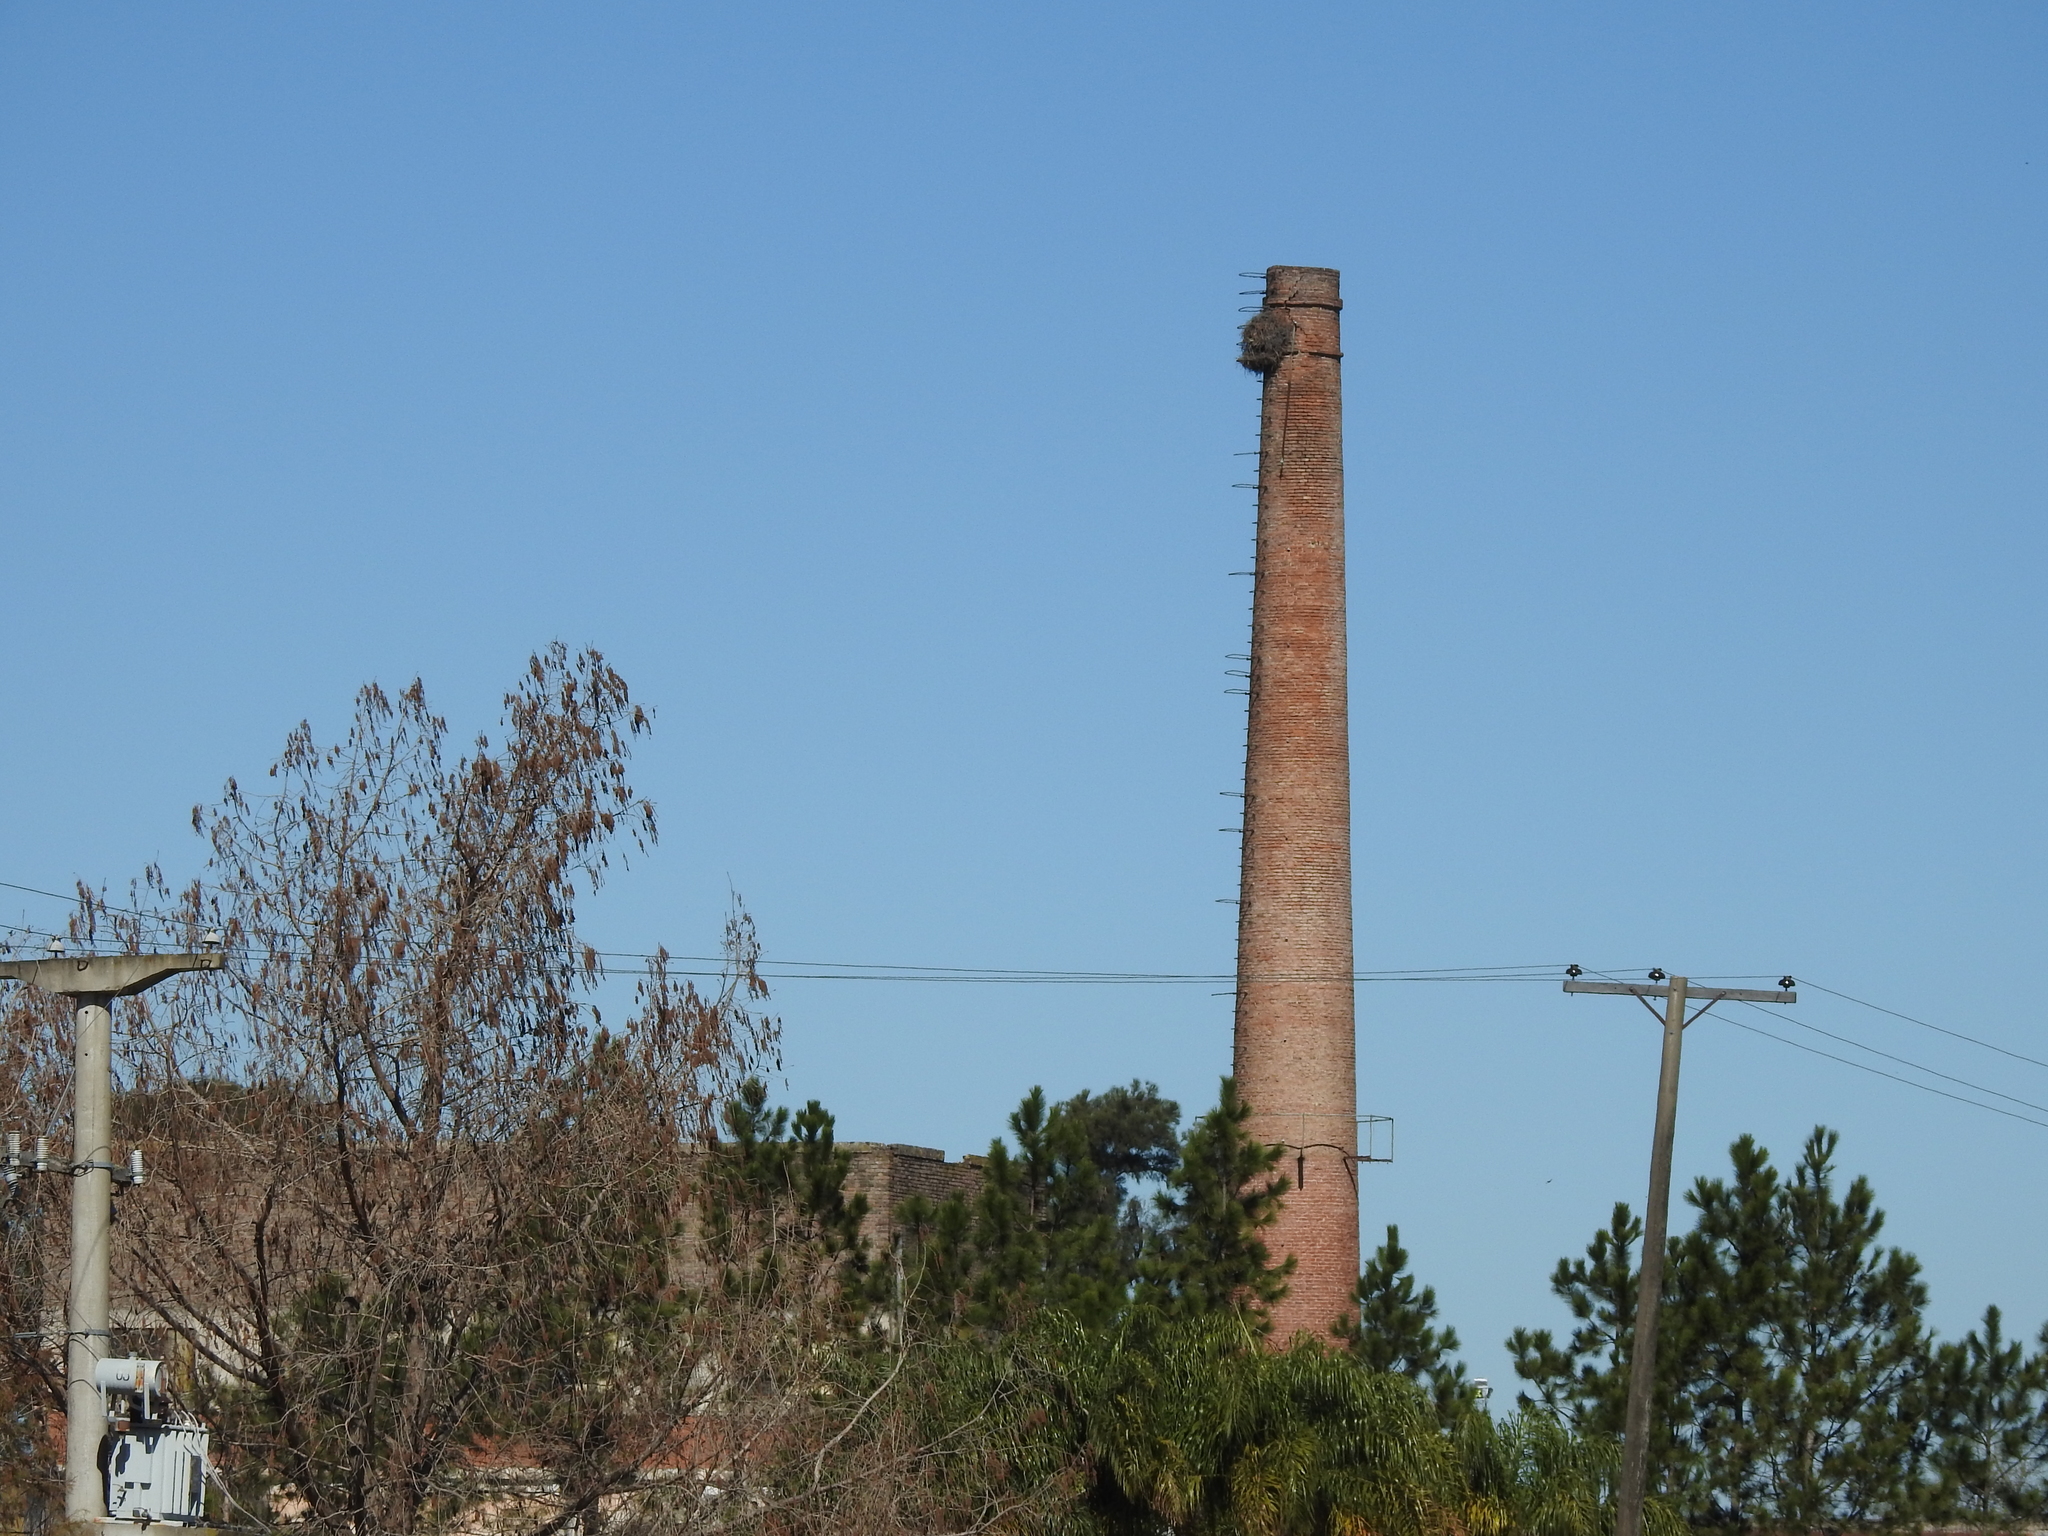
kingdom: Animalia
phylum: Chordata
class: Aves
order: Psittaciformes
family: Psittacidae
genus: Myiopsitta
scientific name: Myiopsitta monachus
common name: Monk parakeet
